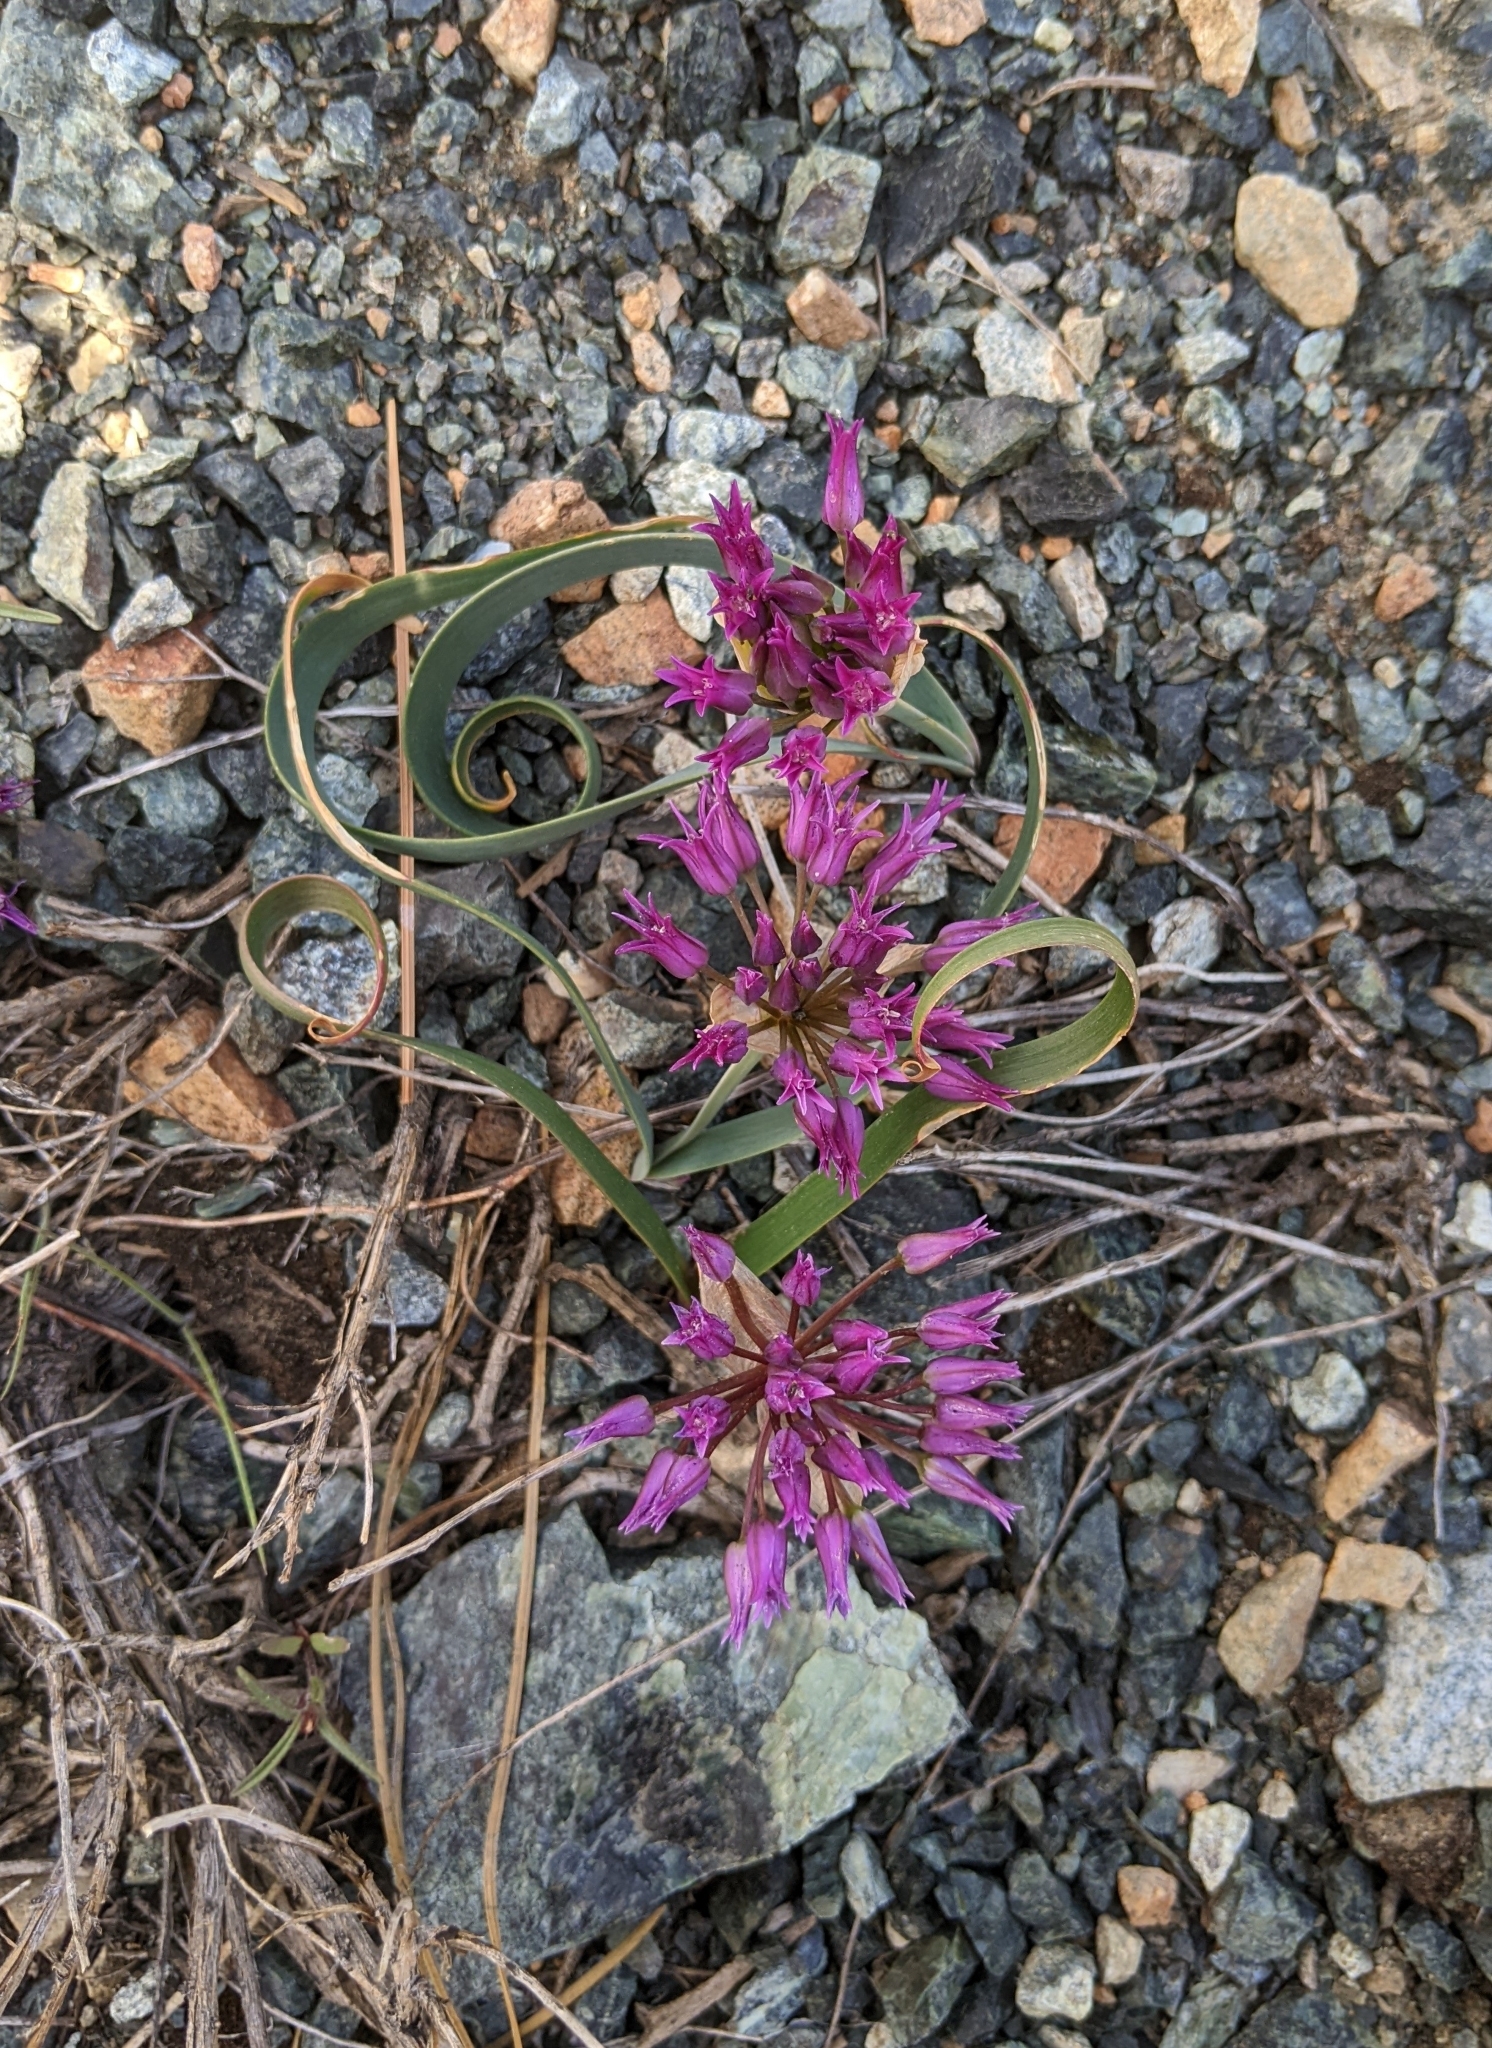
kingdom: Plantae
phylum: Tracheophyta
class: Liliopsida
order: Asparagales
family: Amaryllidaceae
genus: Allium
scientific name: Allium falcifolium
